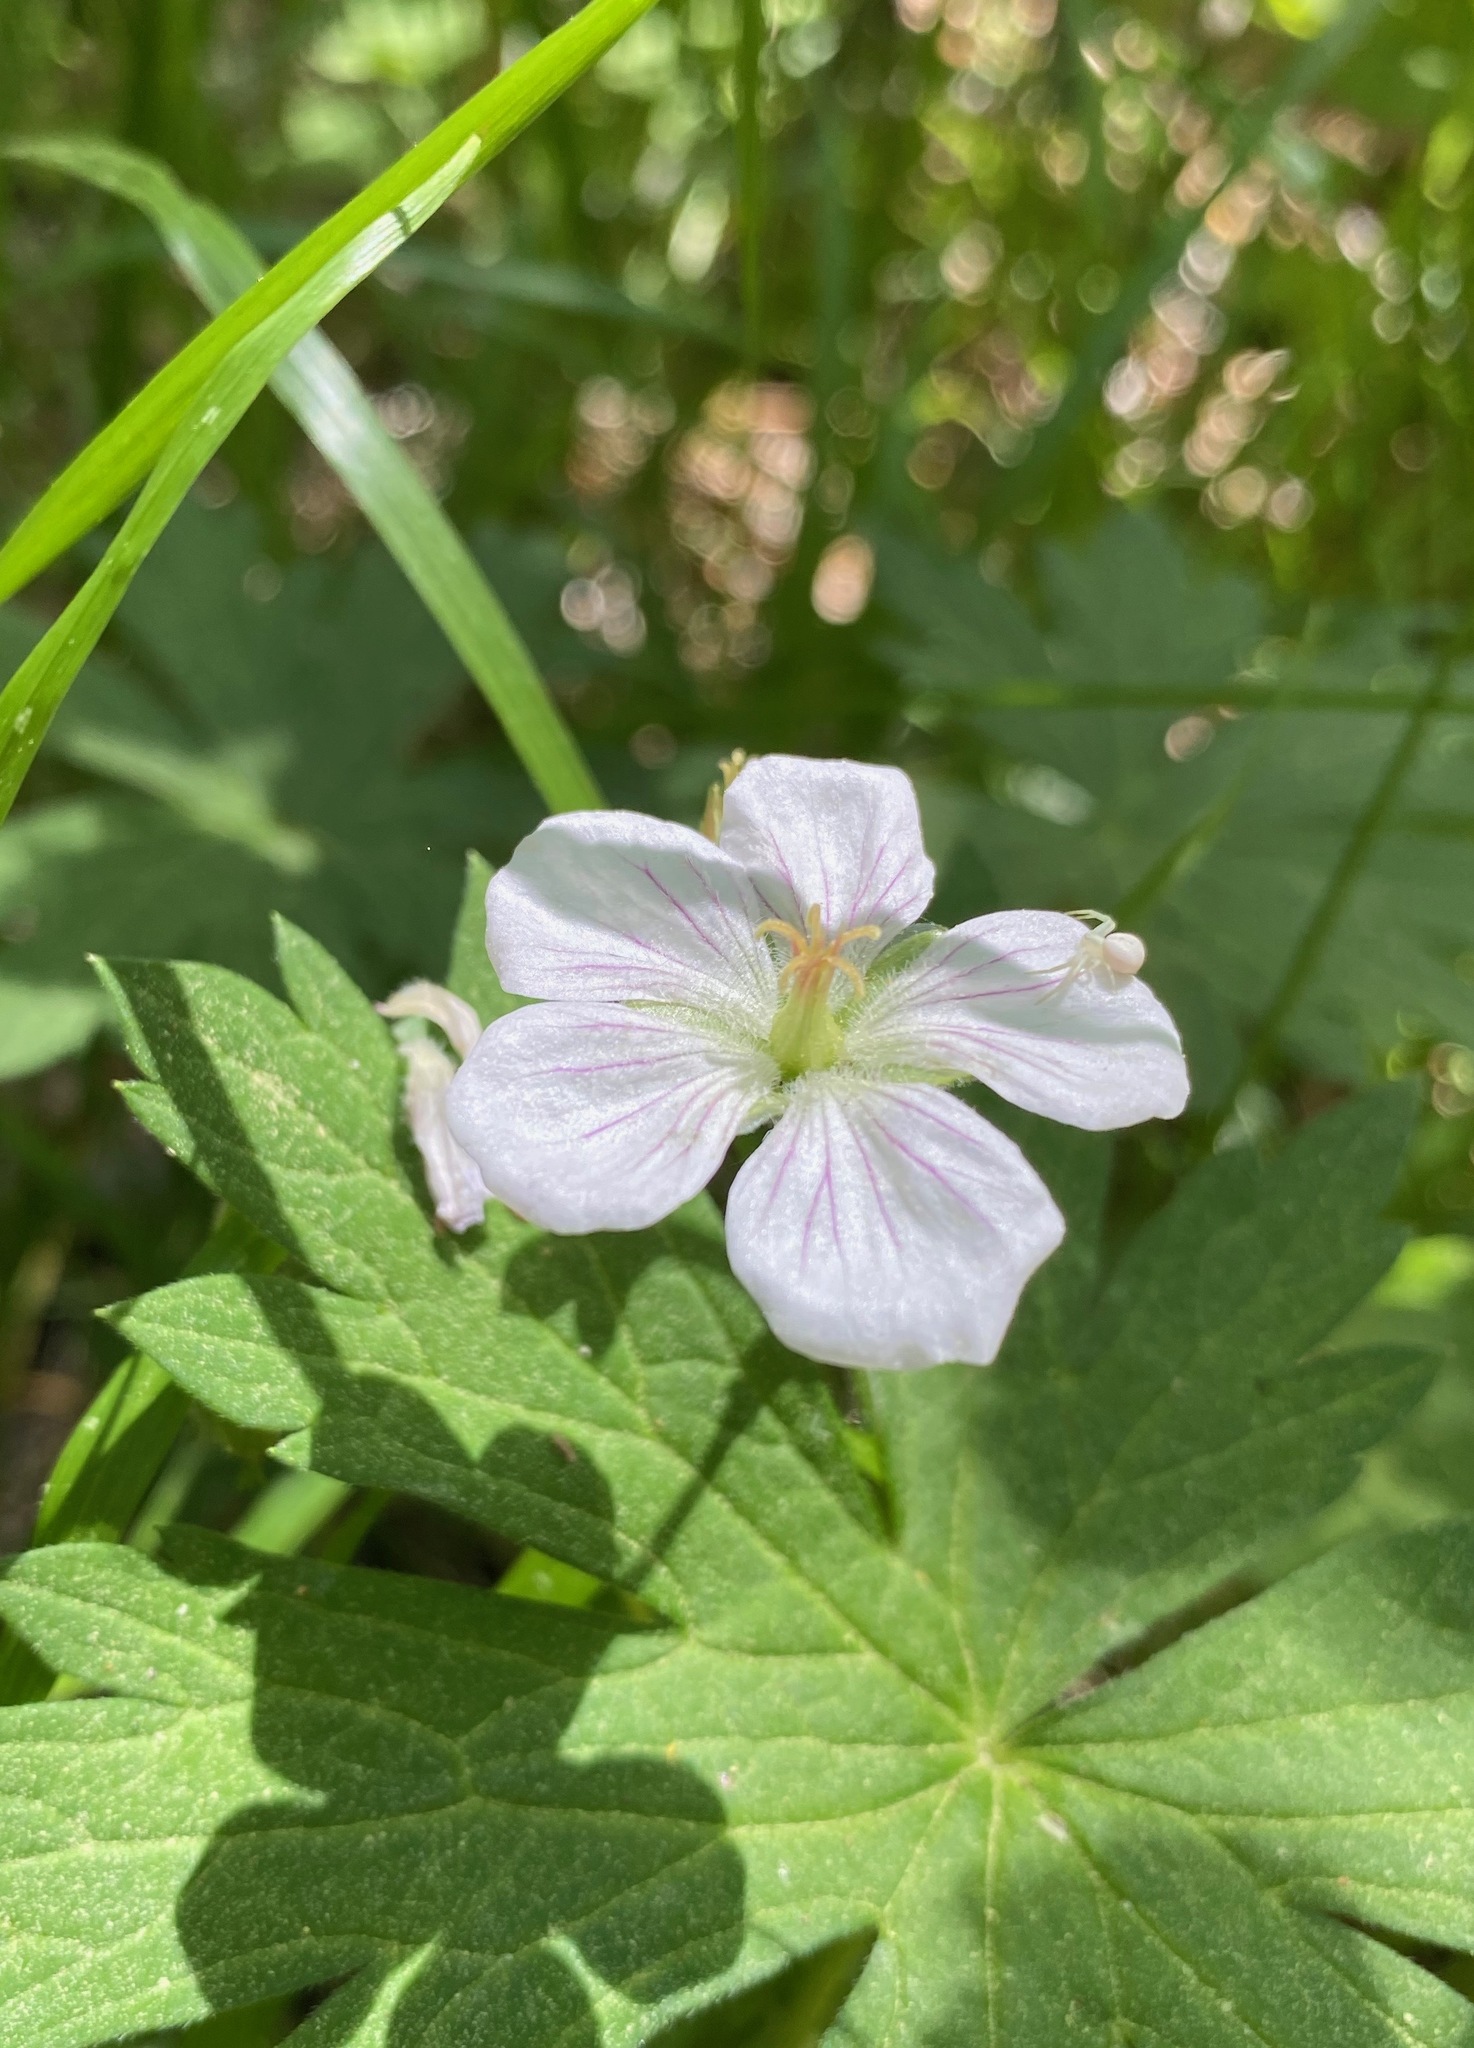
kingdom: Plantae
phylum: Tracheophyta
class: Magnoliopsida
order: Geraniales
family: Geraniaceae
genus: Geranium
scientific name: Geranium richardsonii
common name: Richardson's crane's-bill
